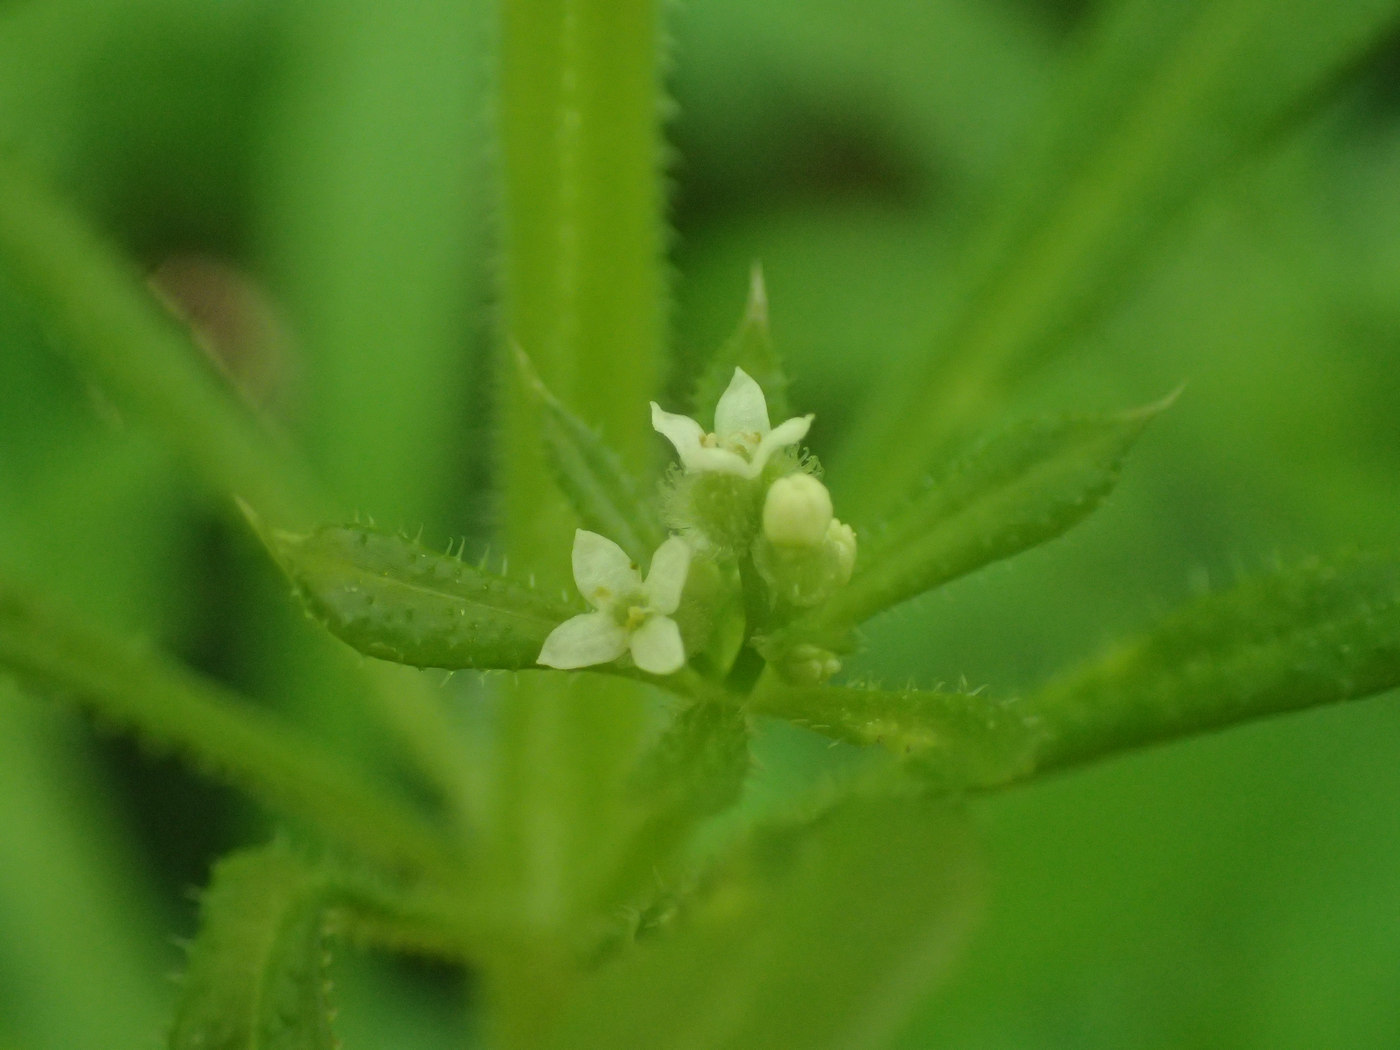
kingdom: Plantae
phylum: Tracheophyta
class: Magnoliopsida
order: Gentianales
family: Rubiaceae
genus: Galium
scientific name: Galium aparine
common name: Cleavers
